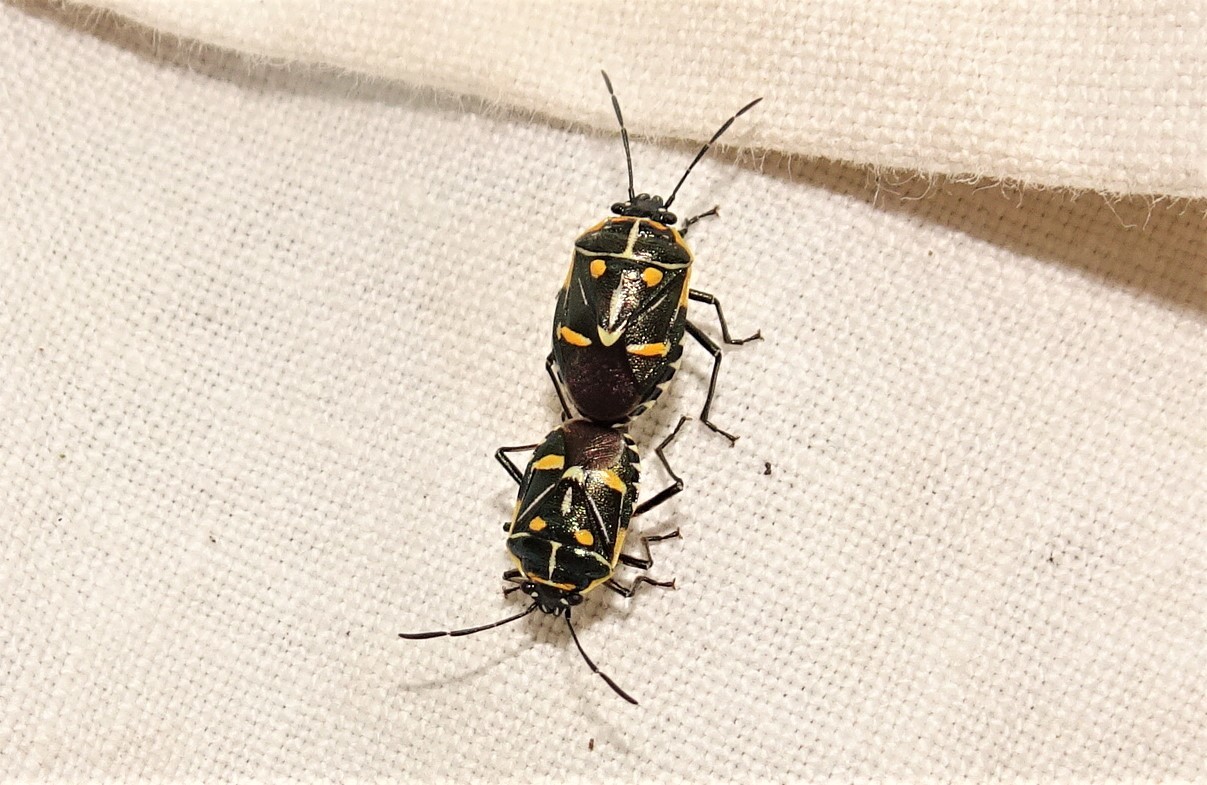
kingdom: Animalia
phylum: Arthropoda
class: Insecta
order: Hemiptera
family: Pentatomidae
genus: Grossiana
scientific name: Grossiana
